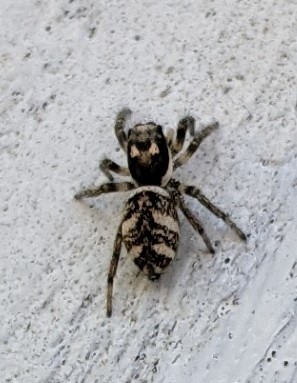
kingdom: Animalia
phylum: Arthropoda
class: Arachnida
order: Araneae
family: Salticidae
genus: Salticus
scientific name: Salticus scenicus
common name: Zebra jumper
